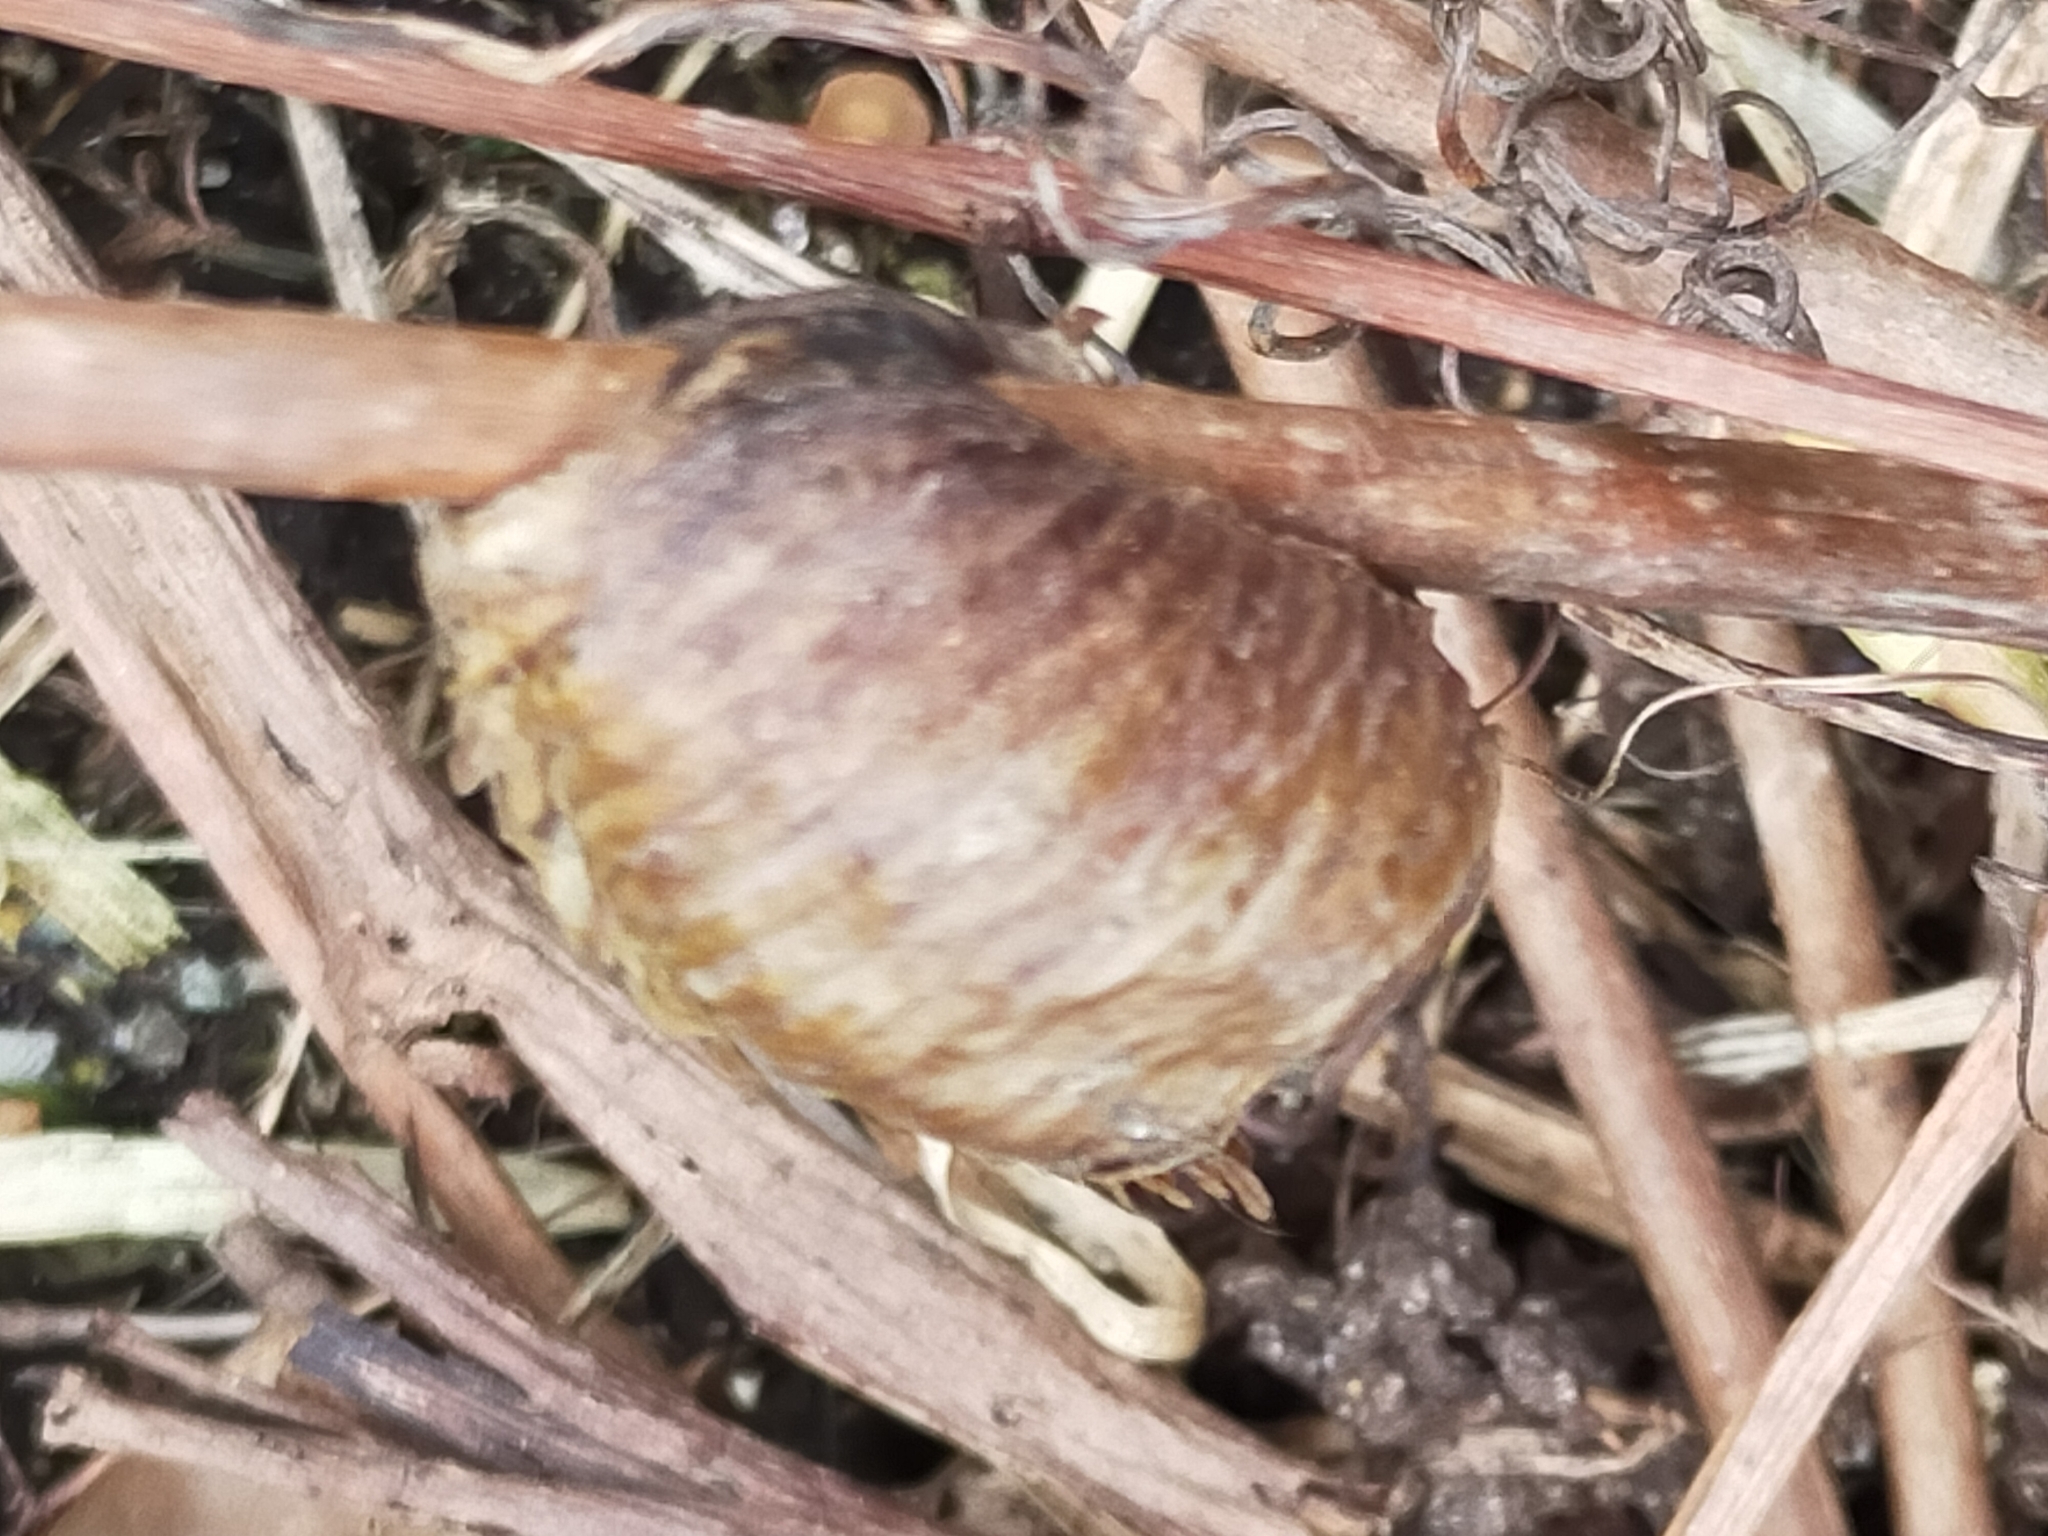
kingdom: Animalia
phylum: Arthropoda
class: Insecta
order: Mantodea
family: Mantidae
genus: Hierodula
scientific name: Hierodula transcaucasica
